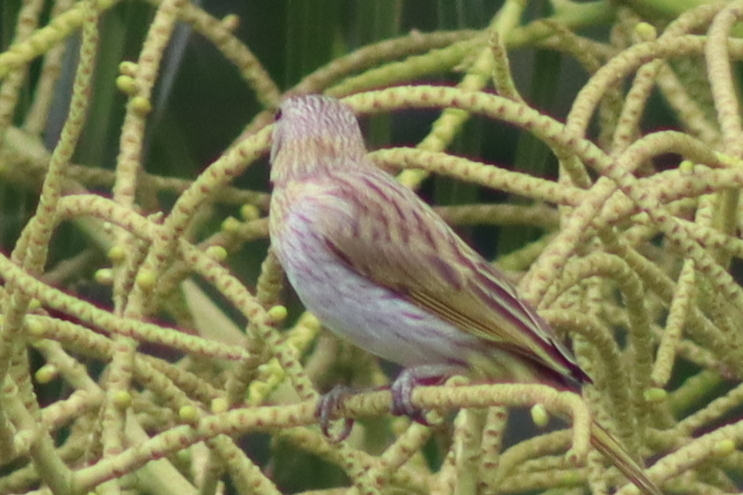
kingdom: Animalia
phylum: Chordata
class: Aves
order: Passeriformes
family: Thraupidae
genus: Sicalis
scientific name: Sicalis flaveola
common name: Saffron finch
